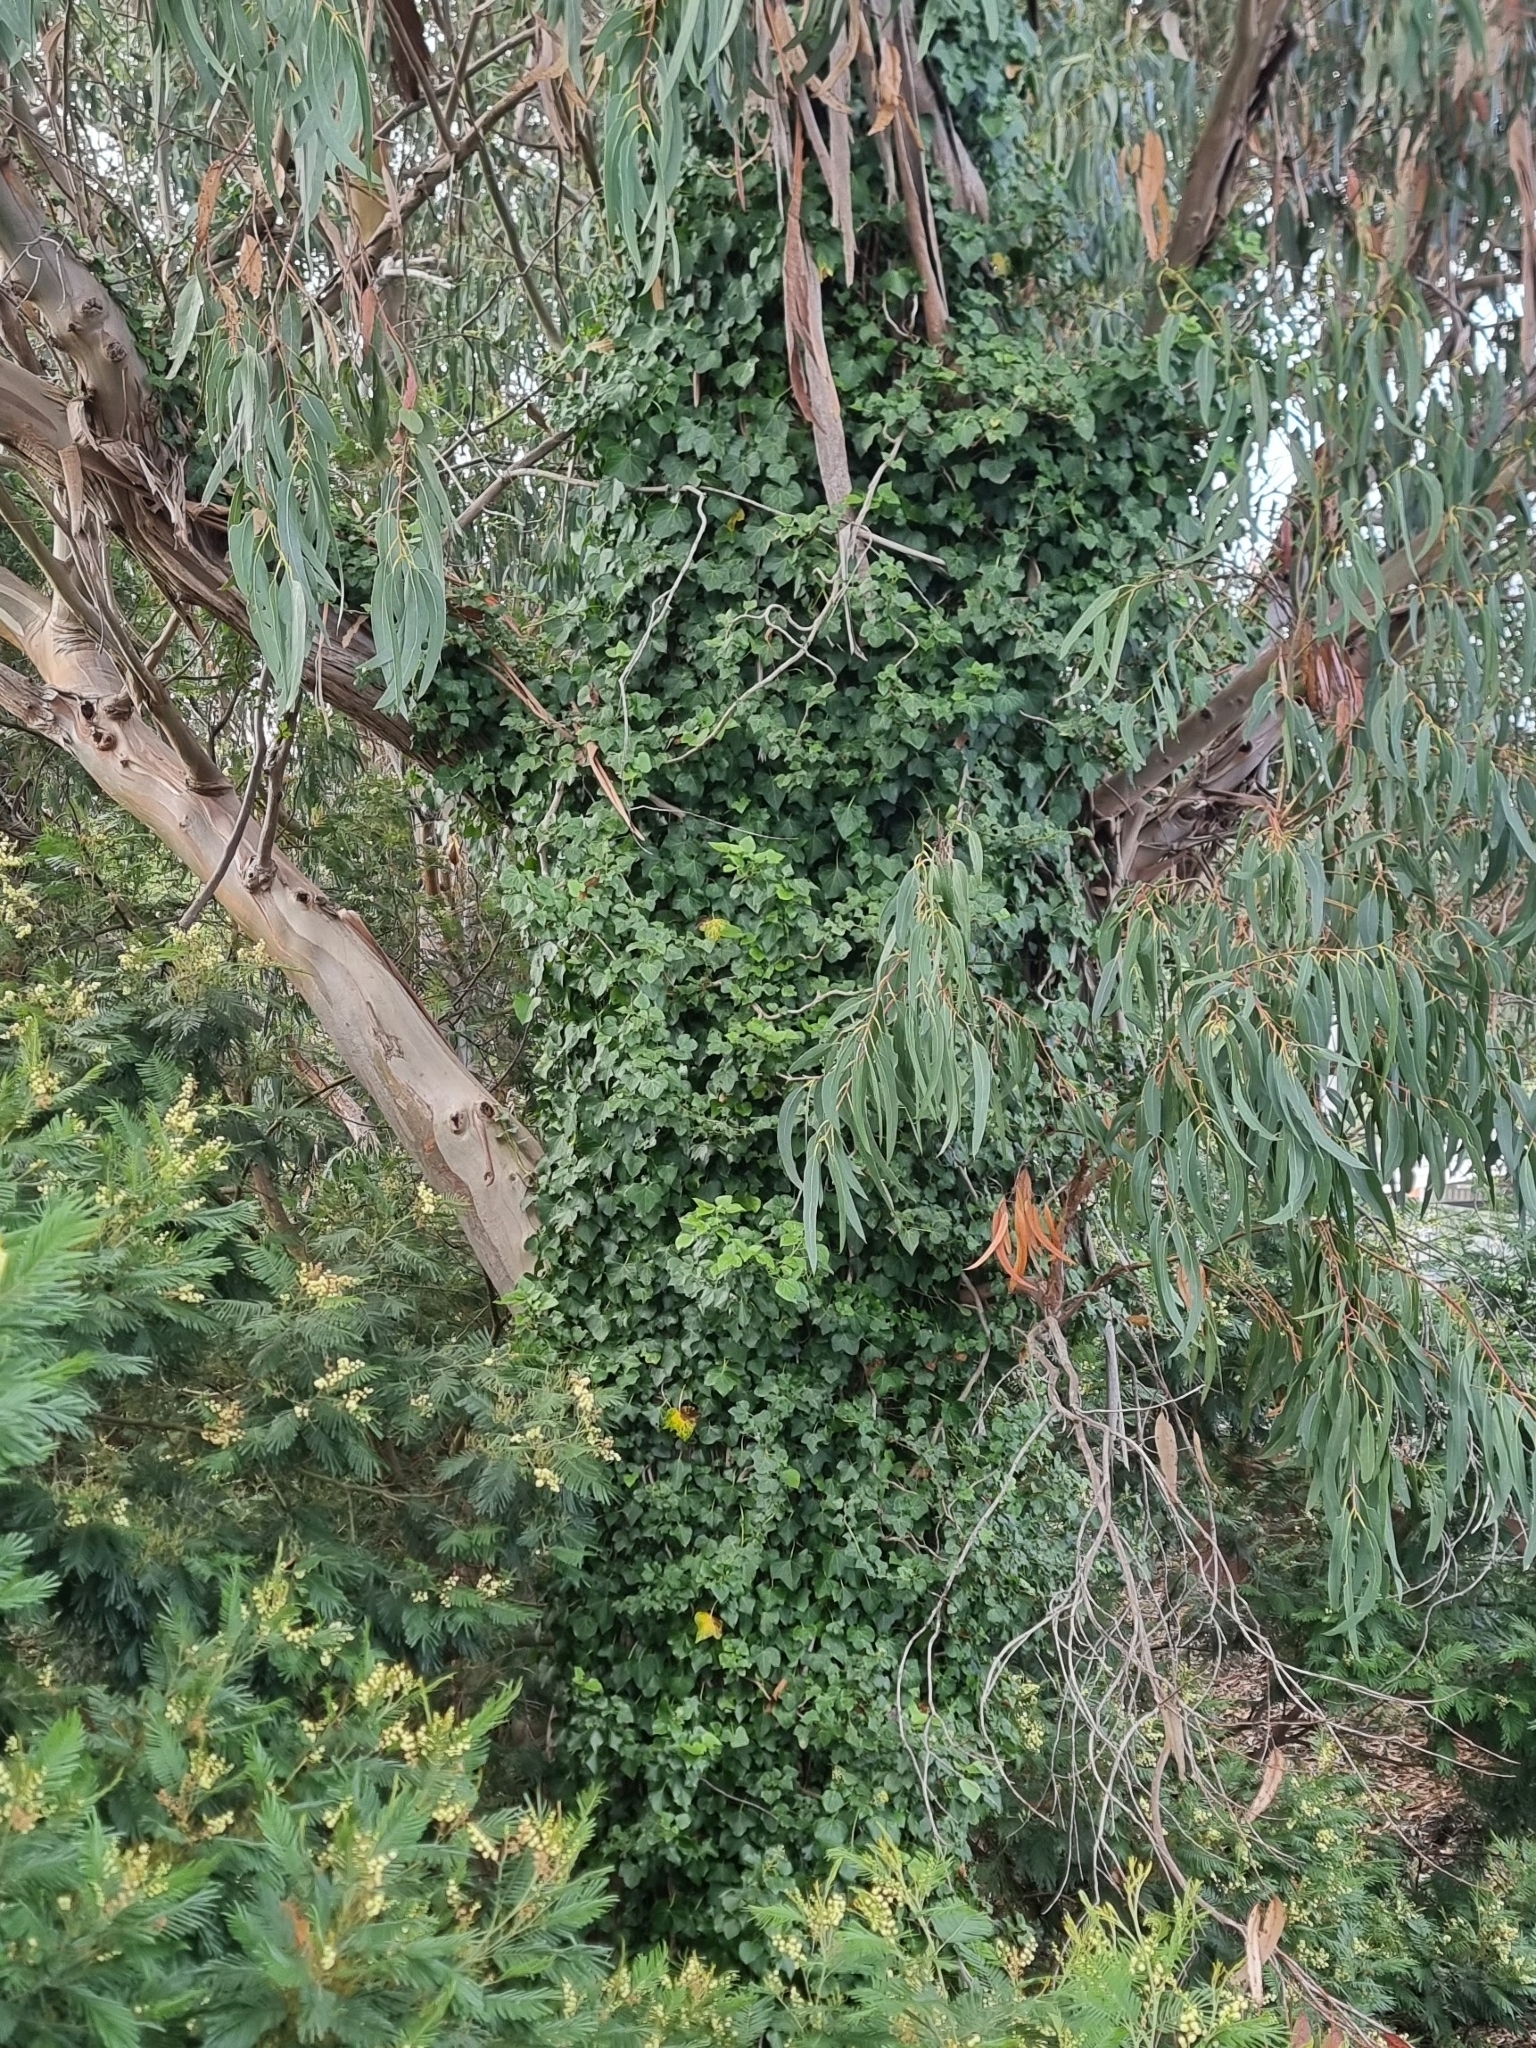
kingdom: Plantae
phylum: Tracheophyta
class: Magnoliopsida
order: Apiales
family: Araliaceae
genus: Hedera
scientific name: Hedera maderensis
